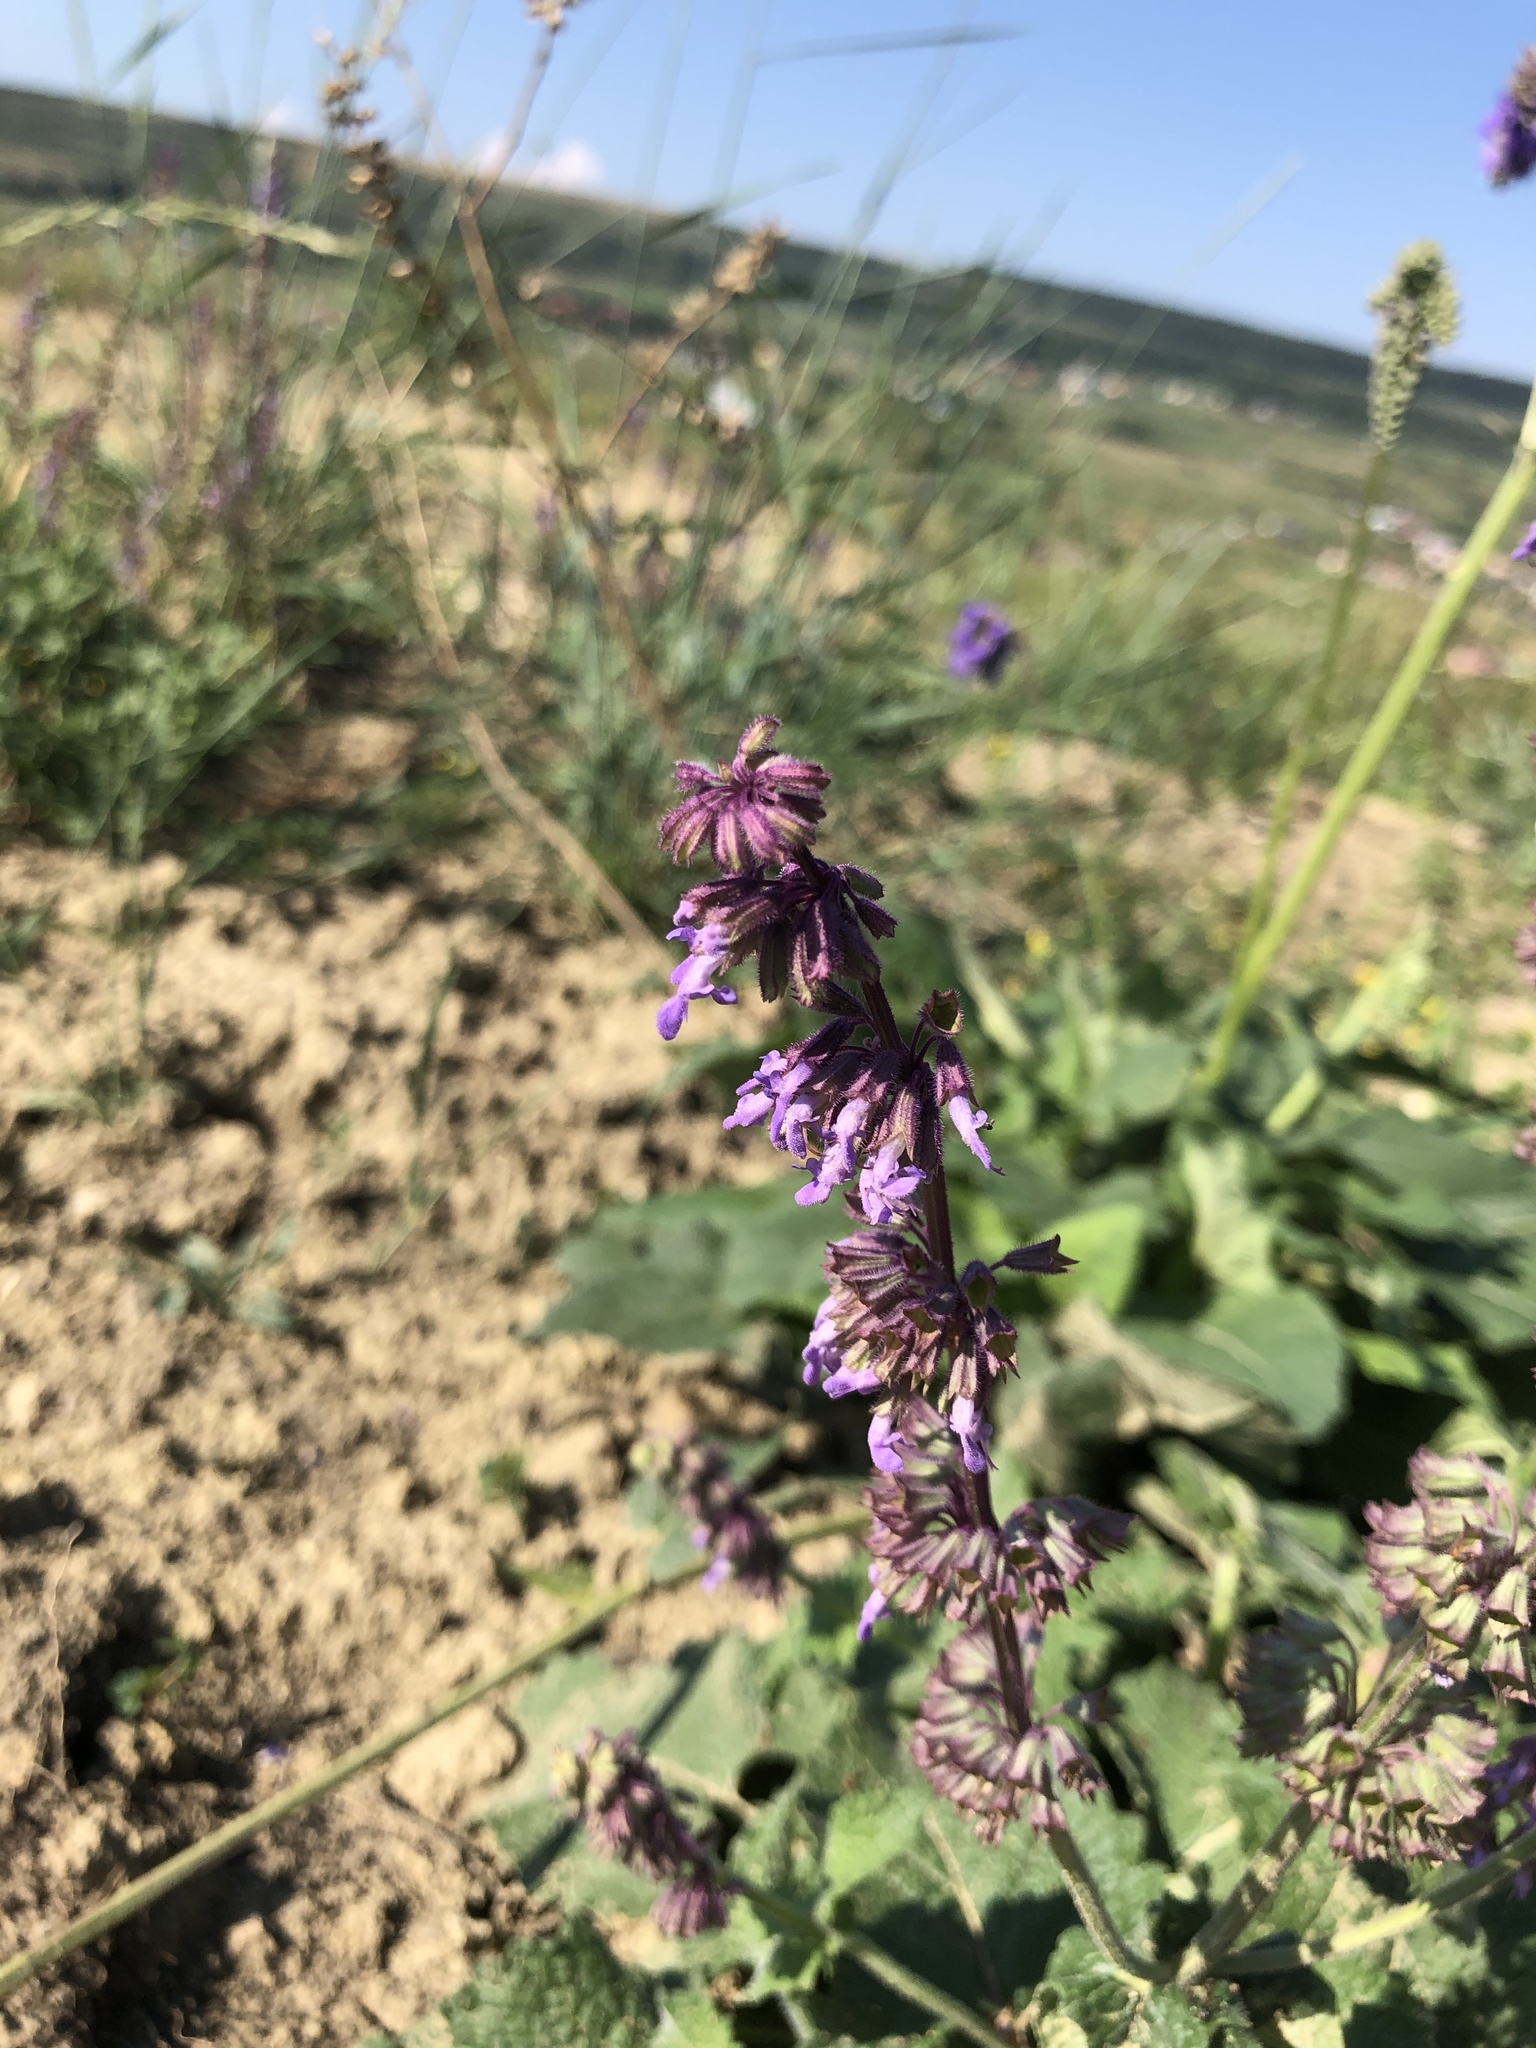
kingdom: Plantae
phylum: Tracheophyta
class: Magnoliopsida
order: Lamiales
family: Lamiaceae
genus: Salvia
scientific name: Salvia verticillata
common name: Whorled clary
